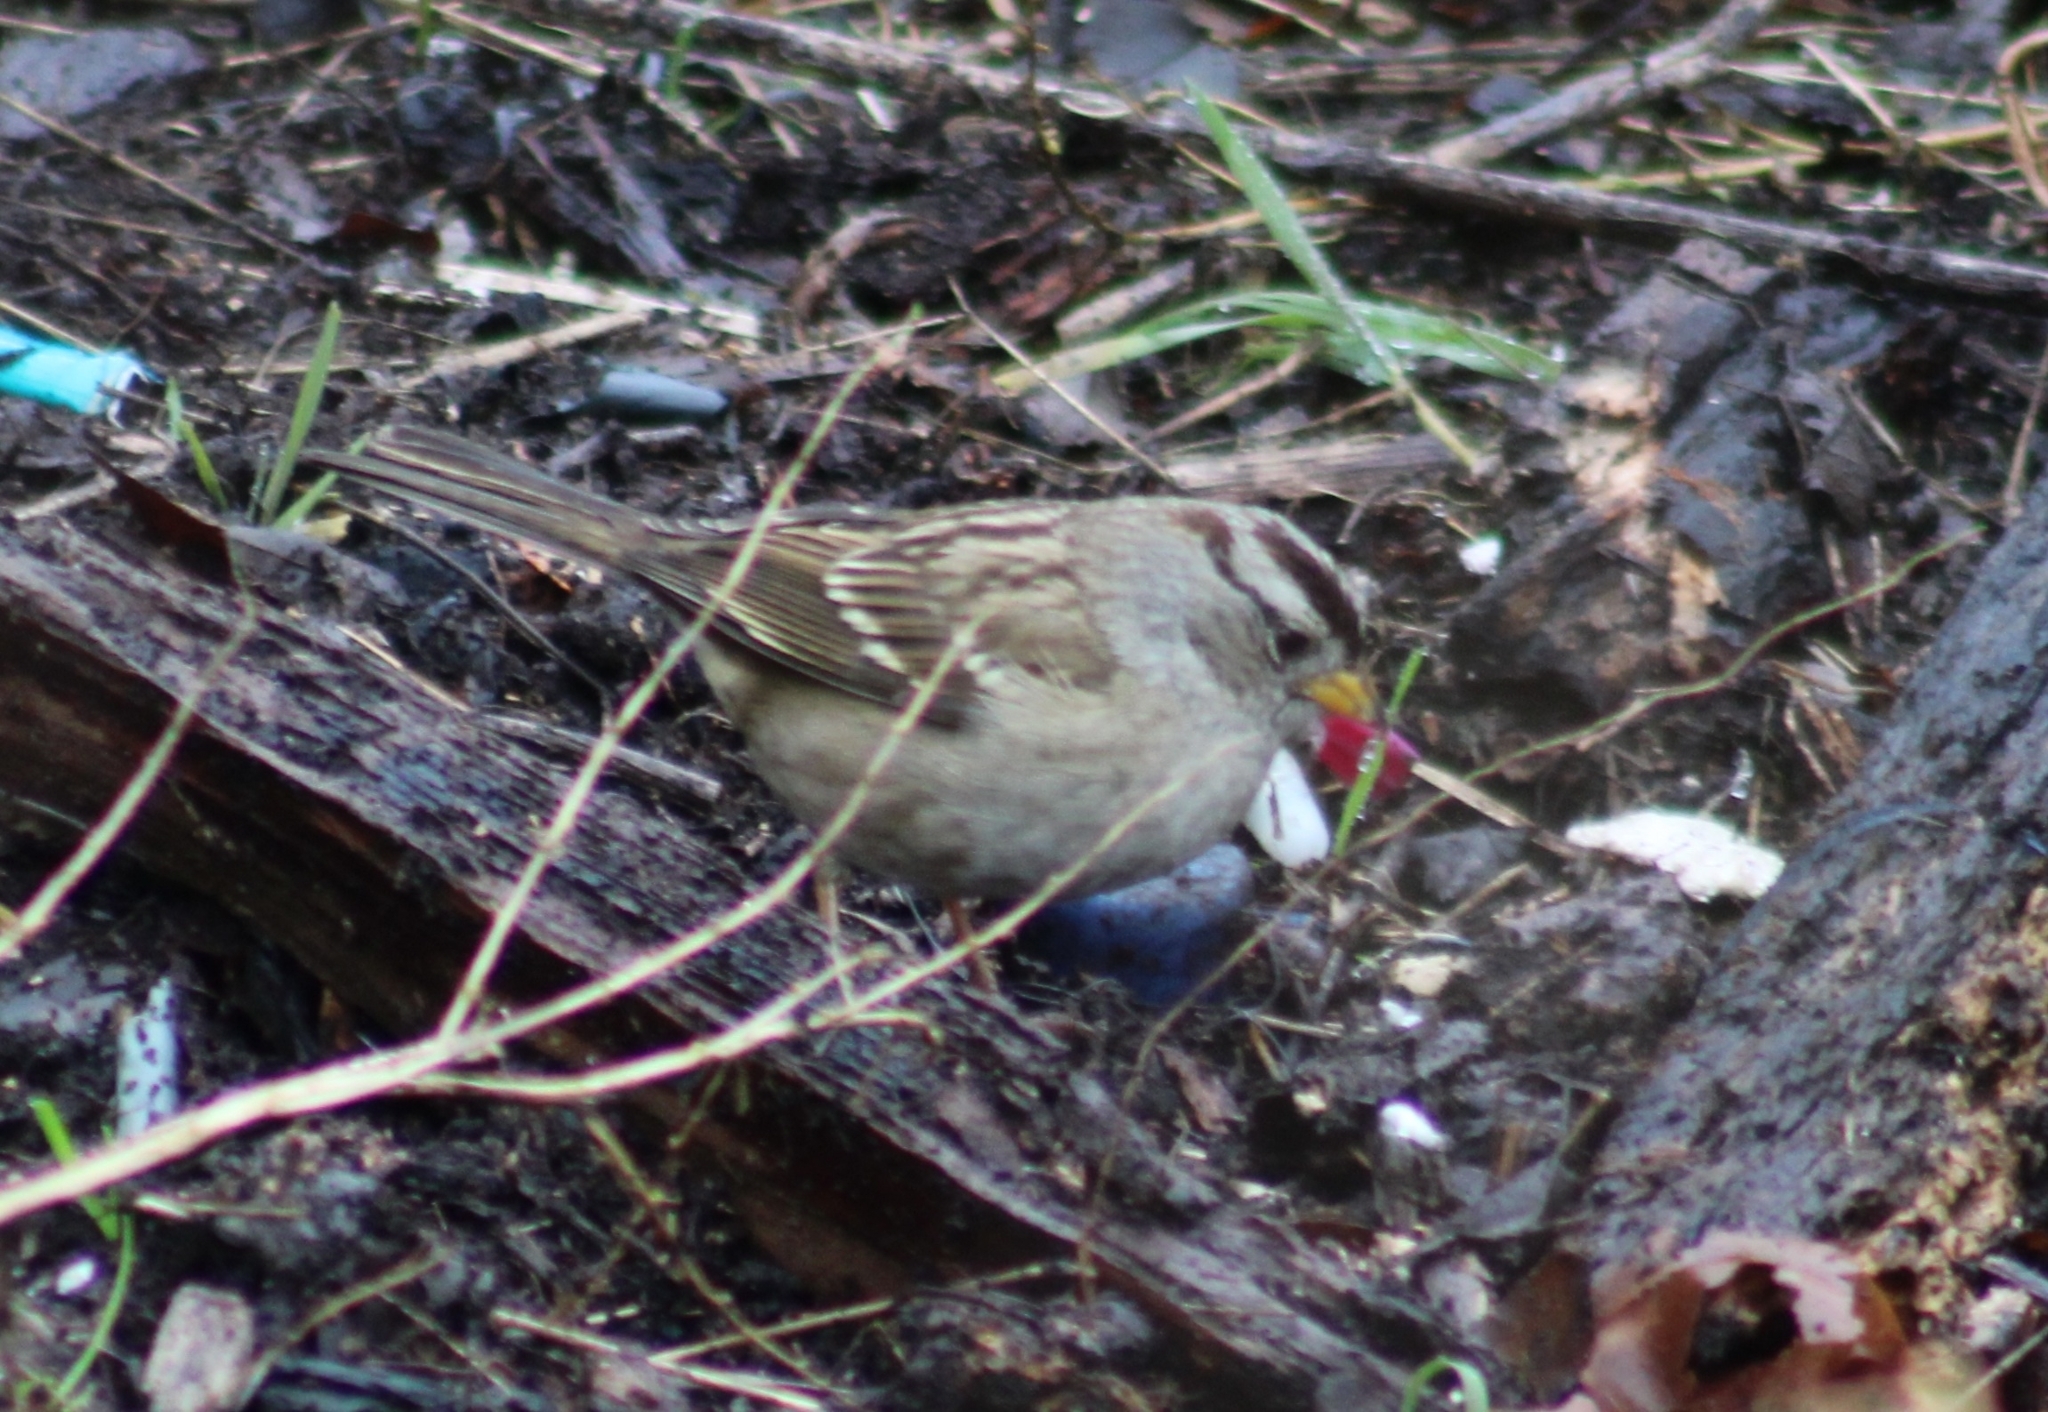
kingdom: Animalia
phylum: Chordata
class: Aves
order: Passeriformes
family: Passerellidae
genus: Zonotrichia
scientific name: Zonotrichia leucophrys
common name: White-crowned sparrow
